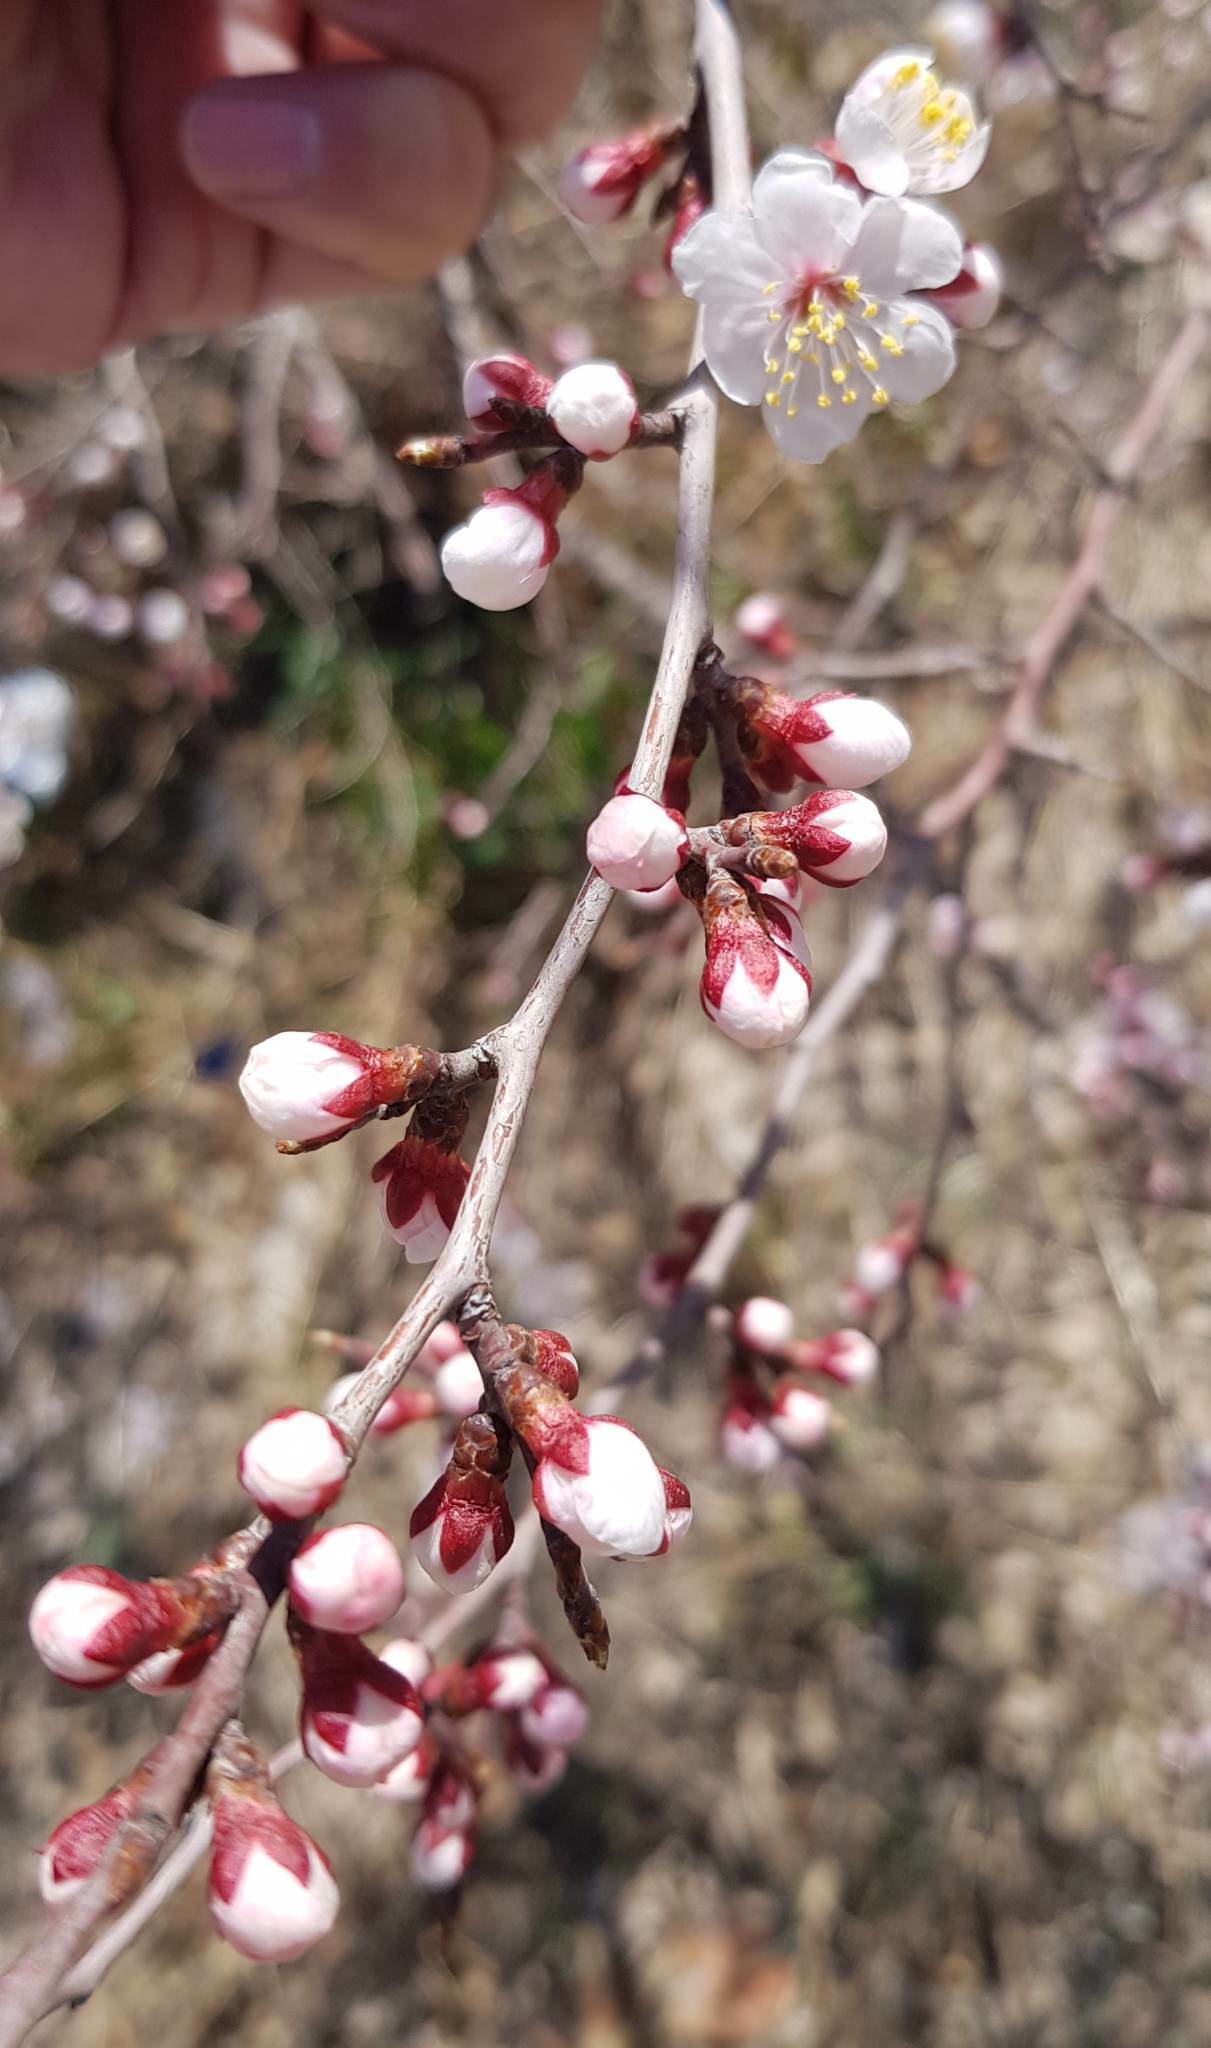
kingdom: Plantae
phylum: Tracheophyta
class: Magnoliopsida
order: Rosales
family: Rosaceae
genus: Prunus
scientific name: Prunus sibirica
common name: Siberian apricot
